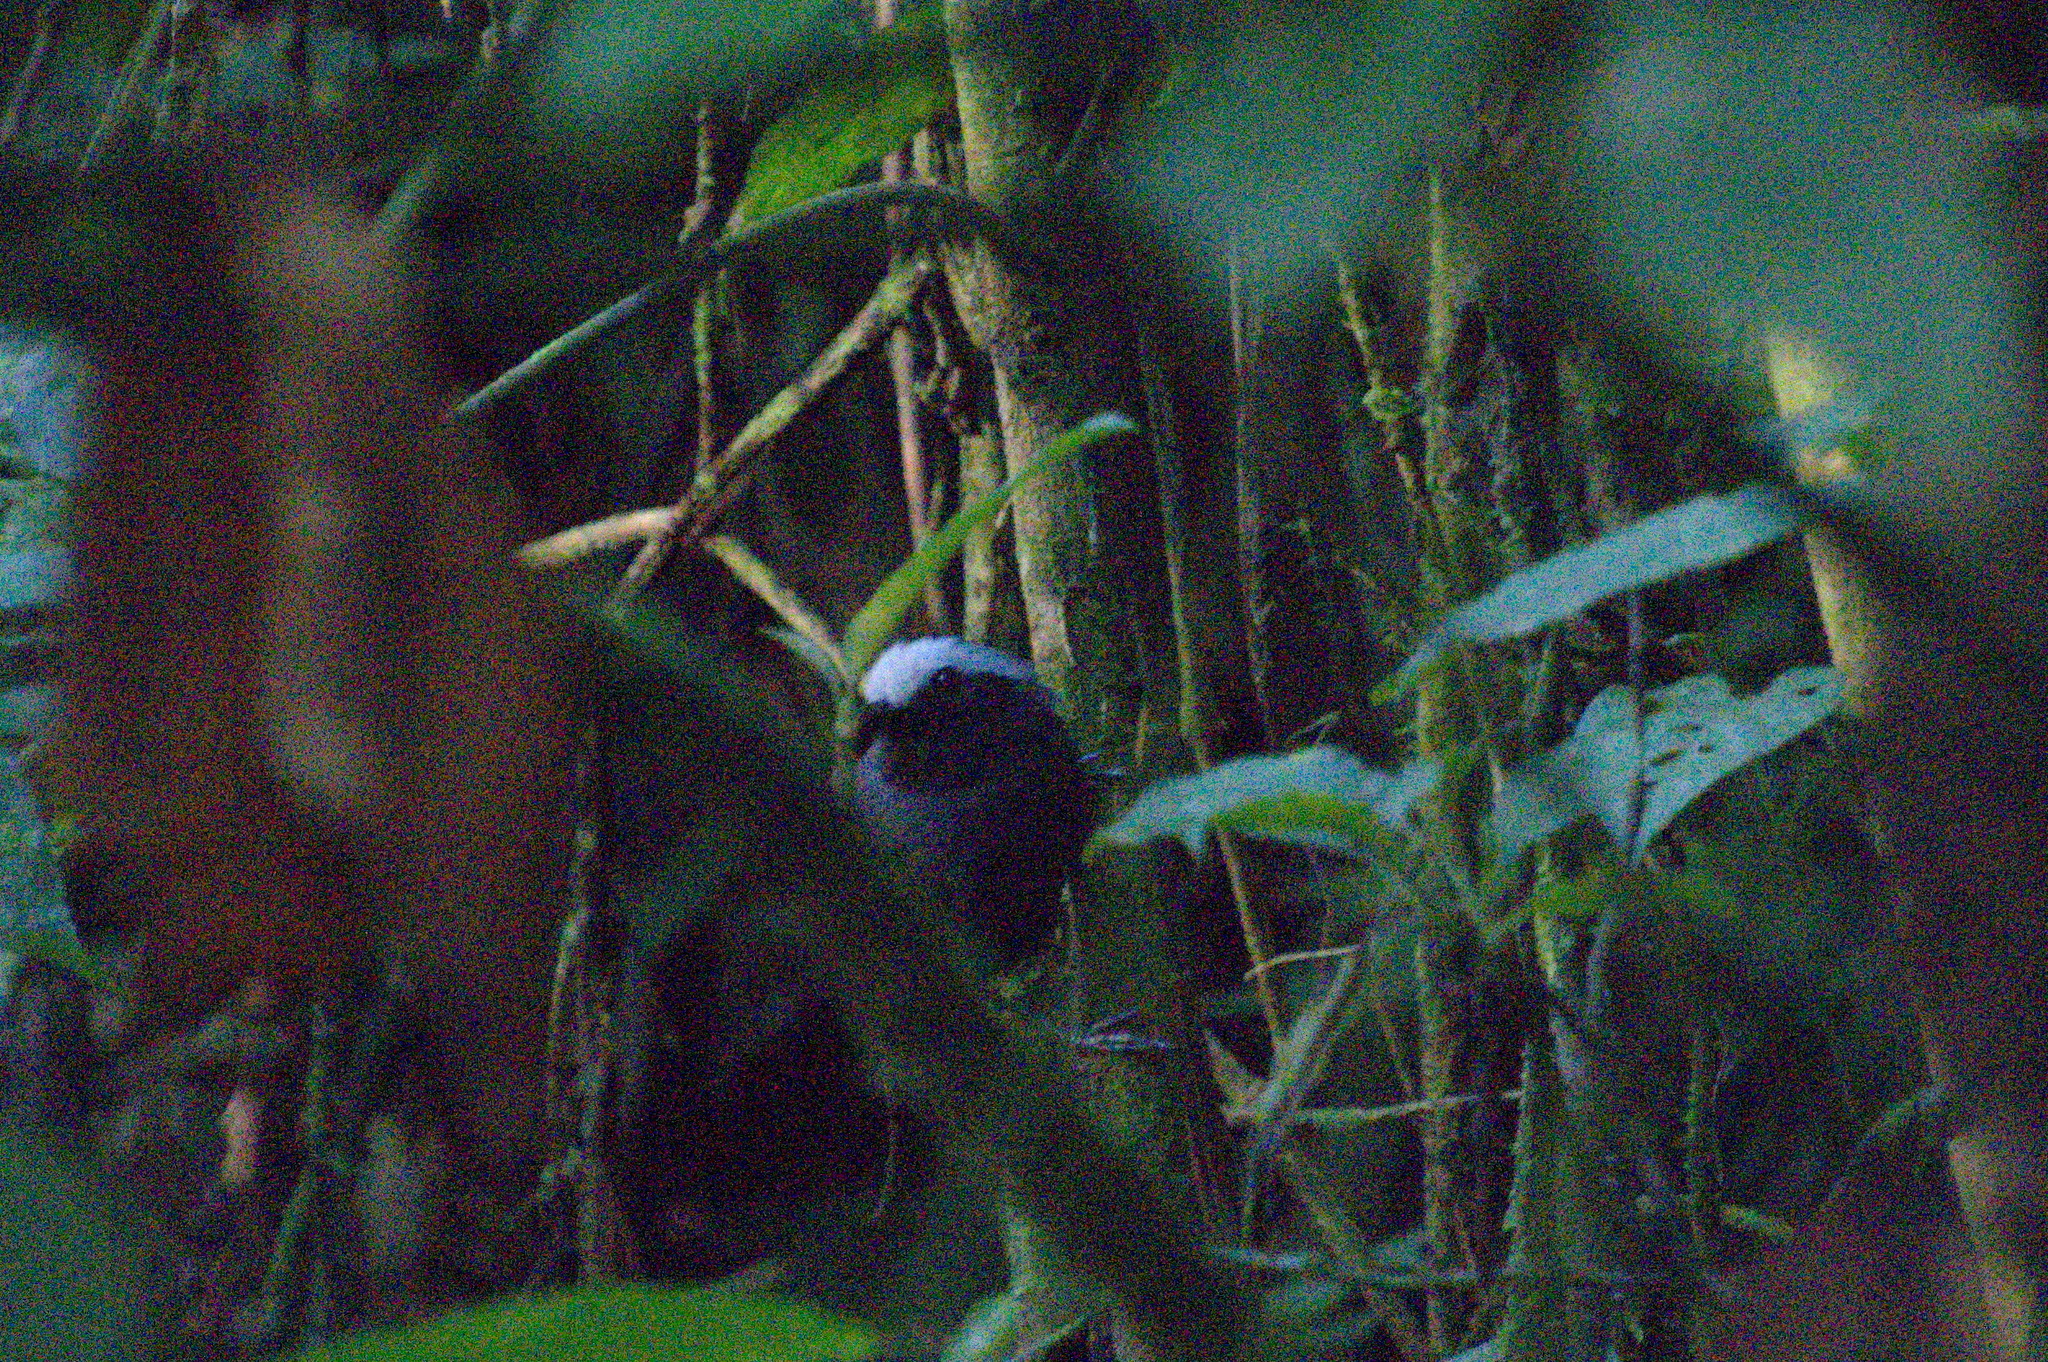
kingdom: Animalia
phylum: Chordata
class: Aves
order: Passeriformes
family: Thamnophilidae
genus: Myrmoborus
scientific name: Myrmoborus leucophrys
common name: White-browed antbird
